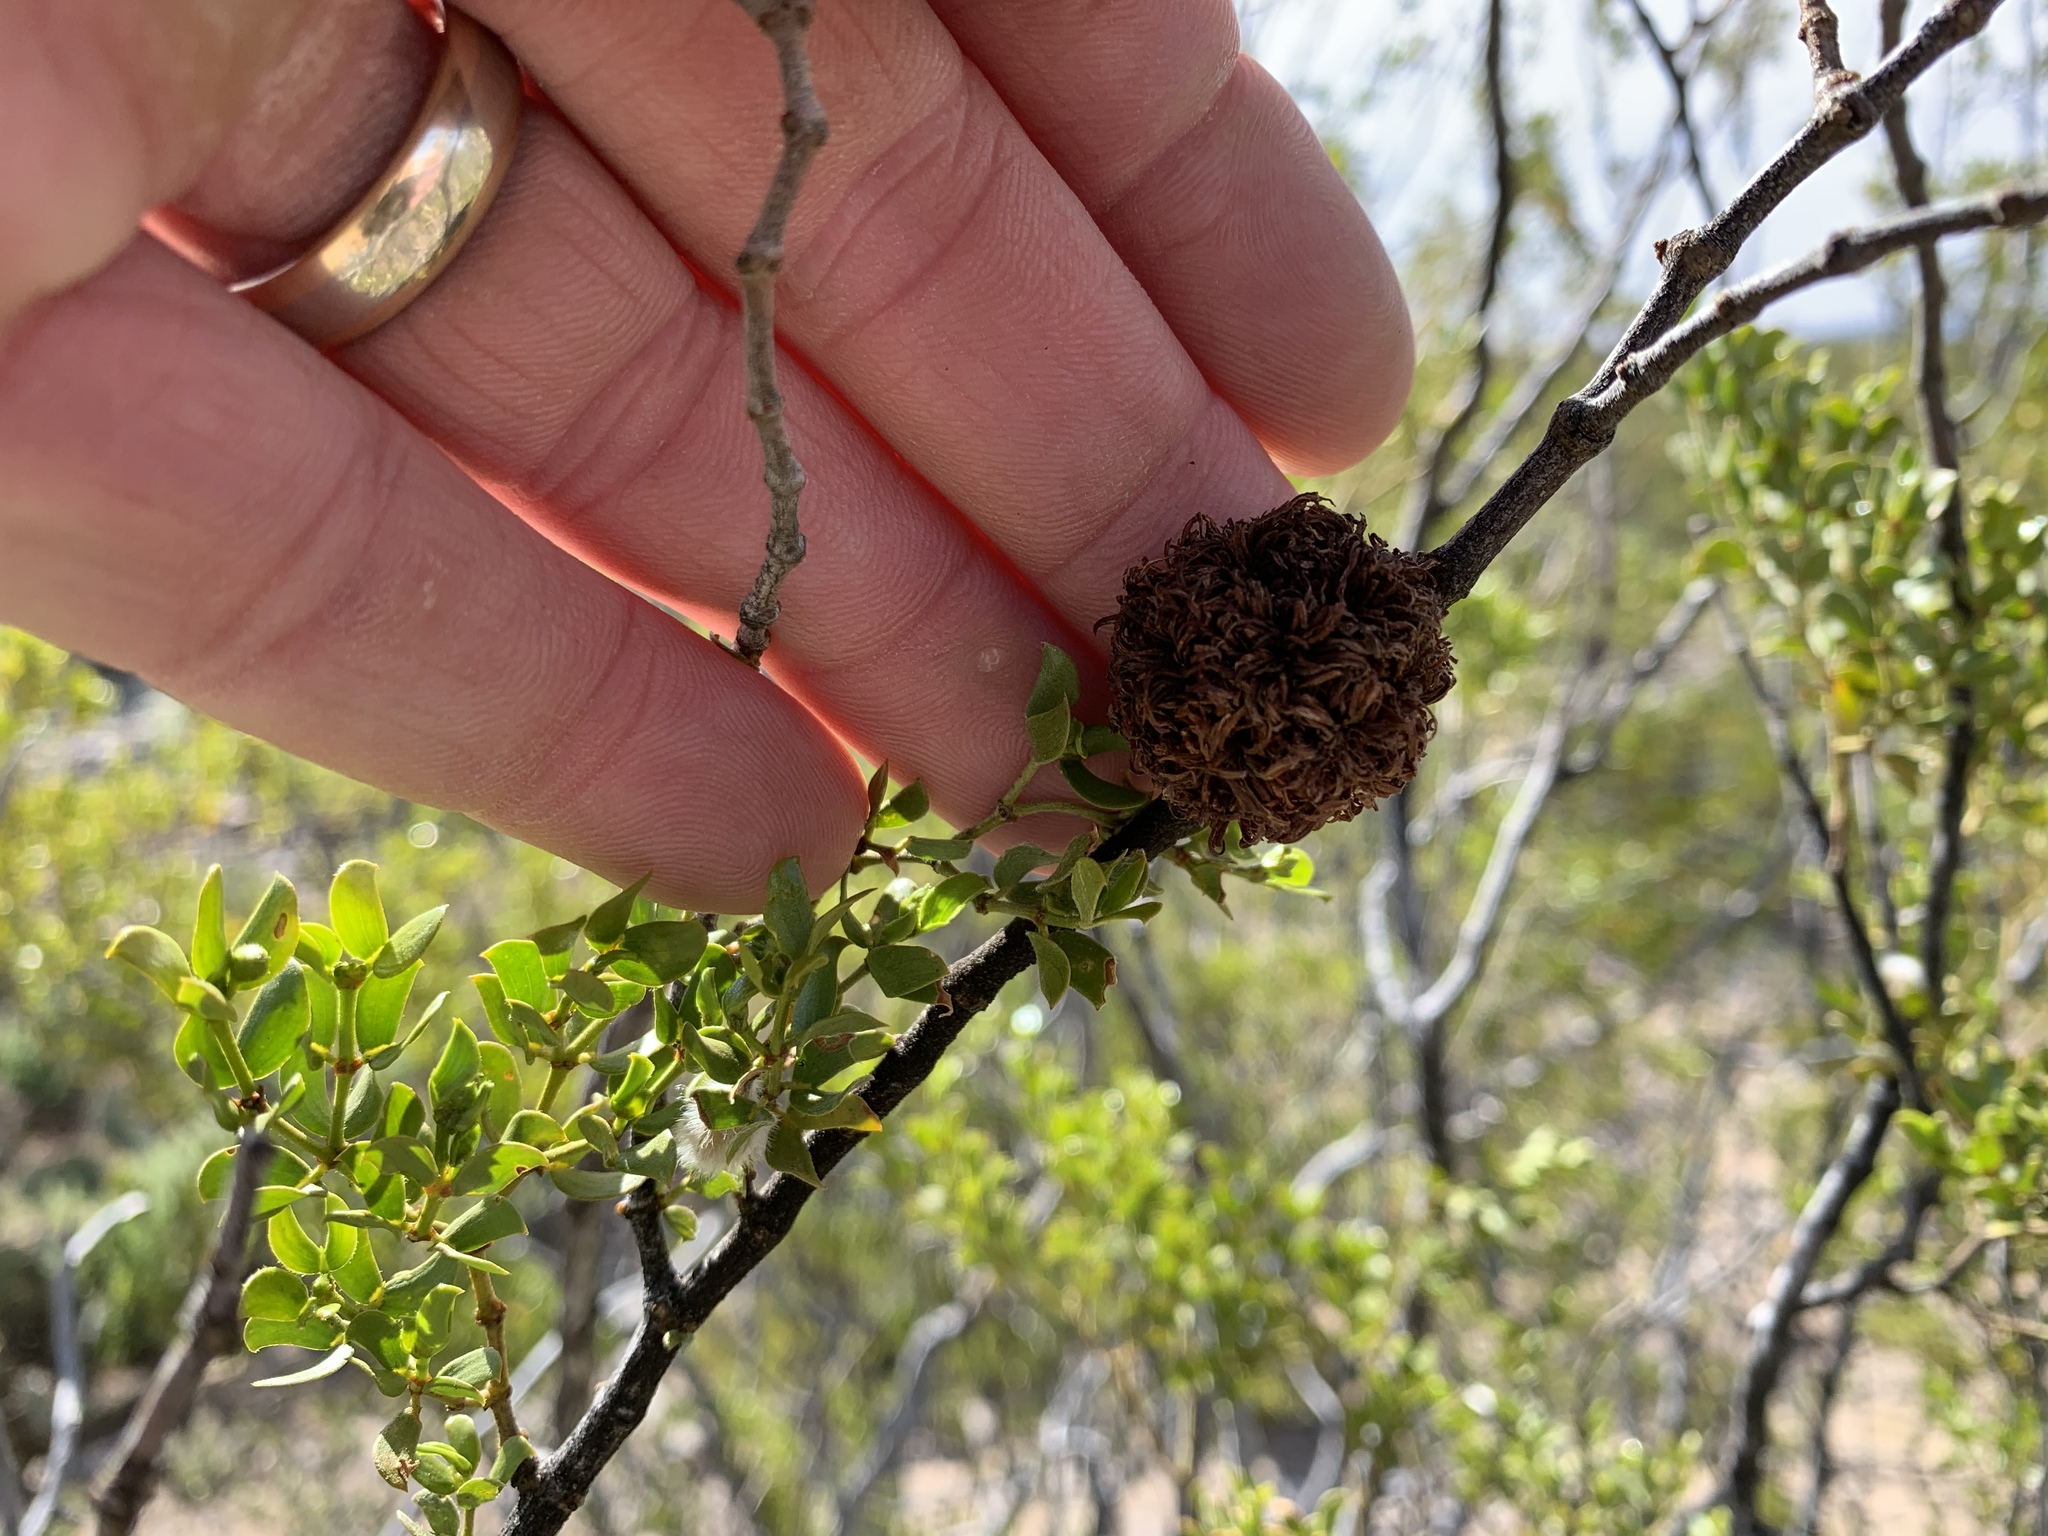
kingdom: Animalia
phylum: Arthropoda
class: Insecta
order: Diptera
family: Cecidomyiidae
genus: Asphondylia
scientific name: Asphondylia auripila
